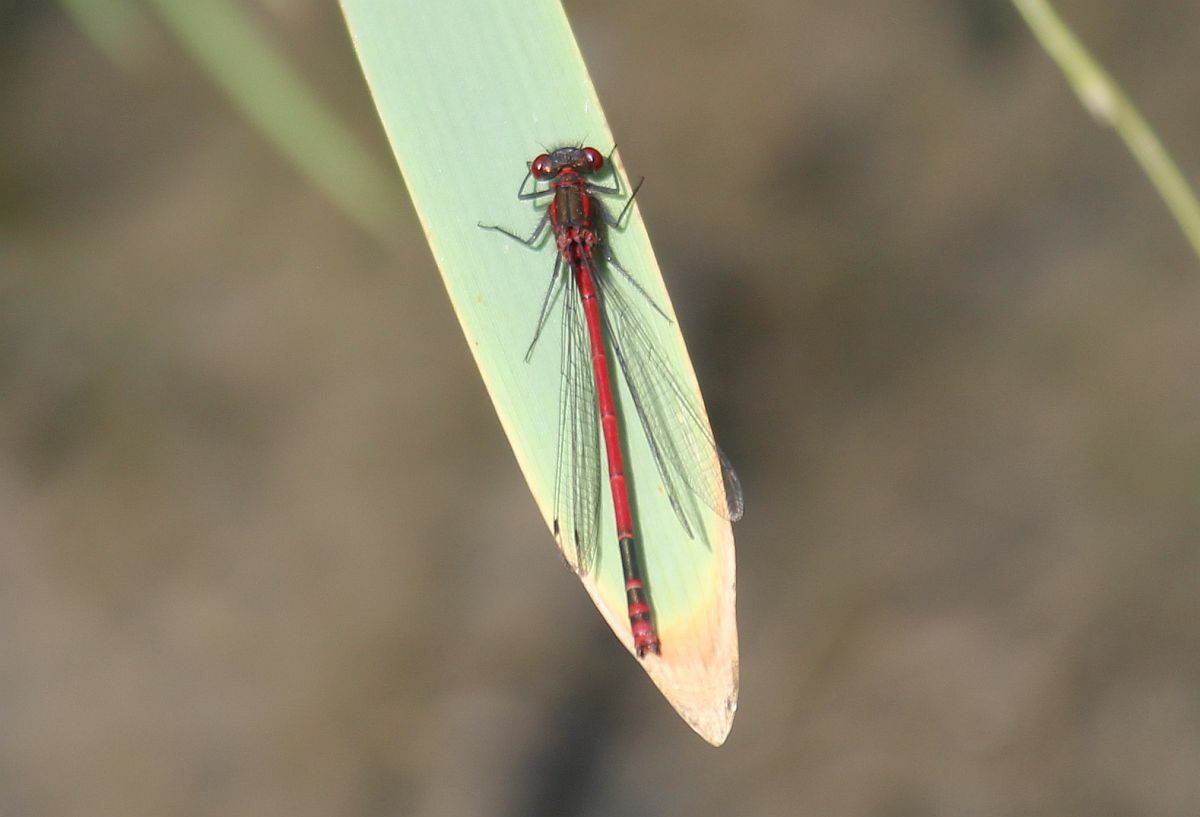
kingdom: Animalia
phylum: Arthropoda
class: Insecta
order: Odonata
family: Coenagrionidae
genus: Pyrrhosoma
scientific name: Pyrrhosoma nymphula
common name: Large red damsel
